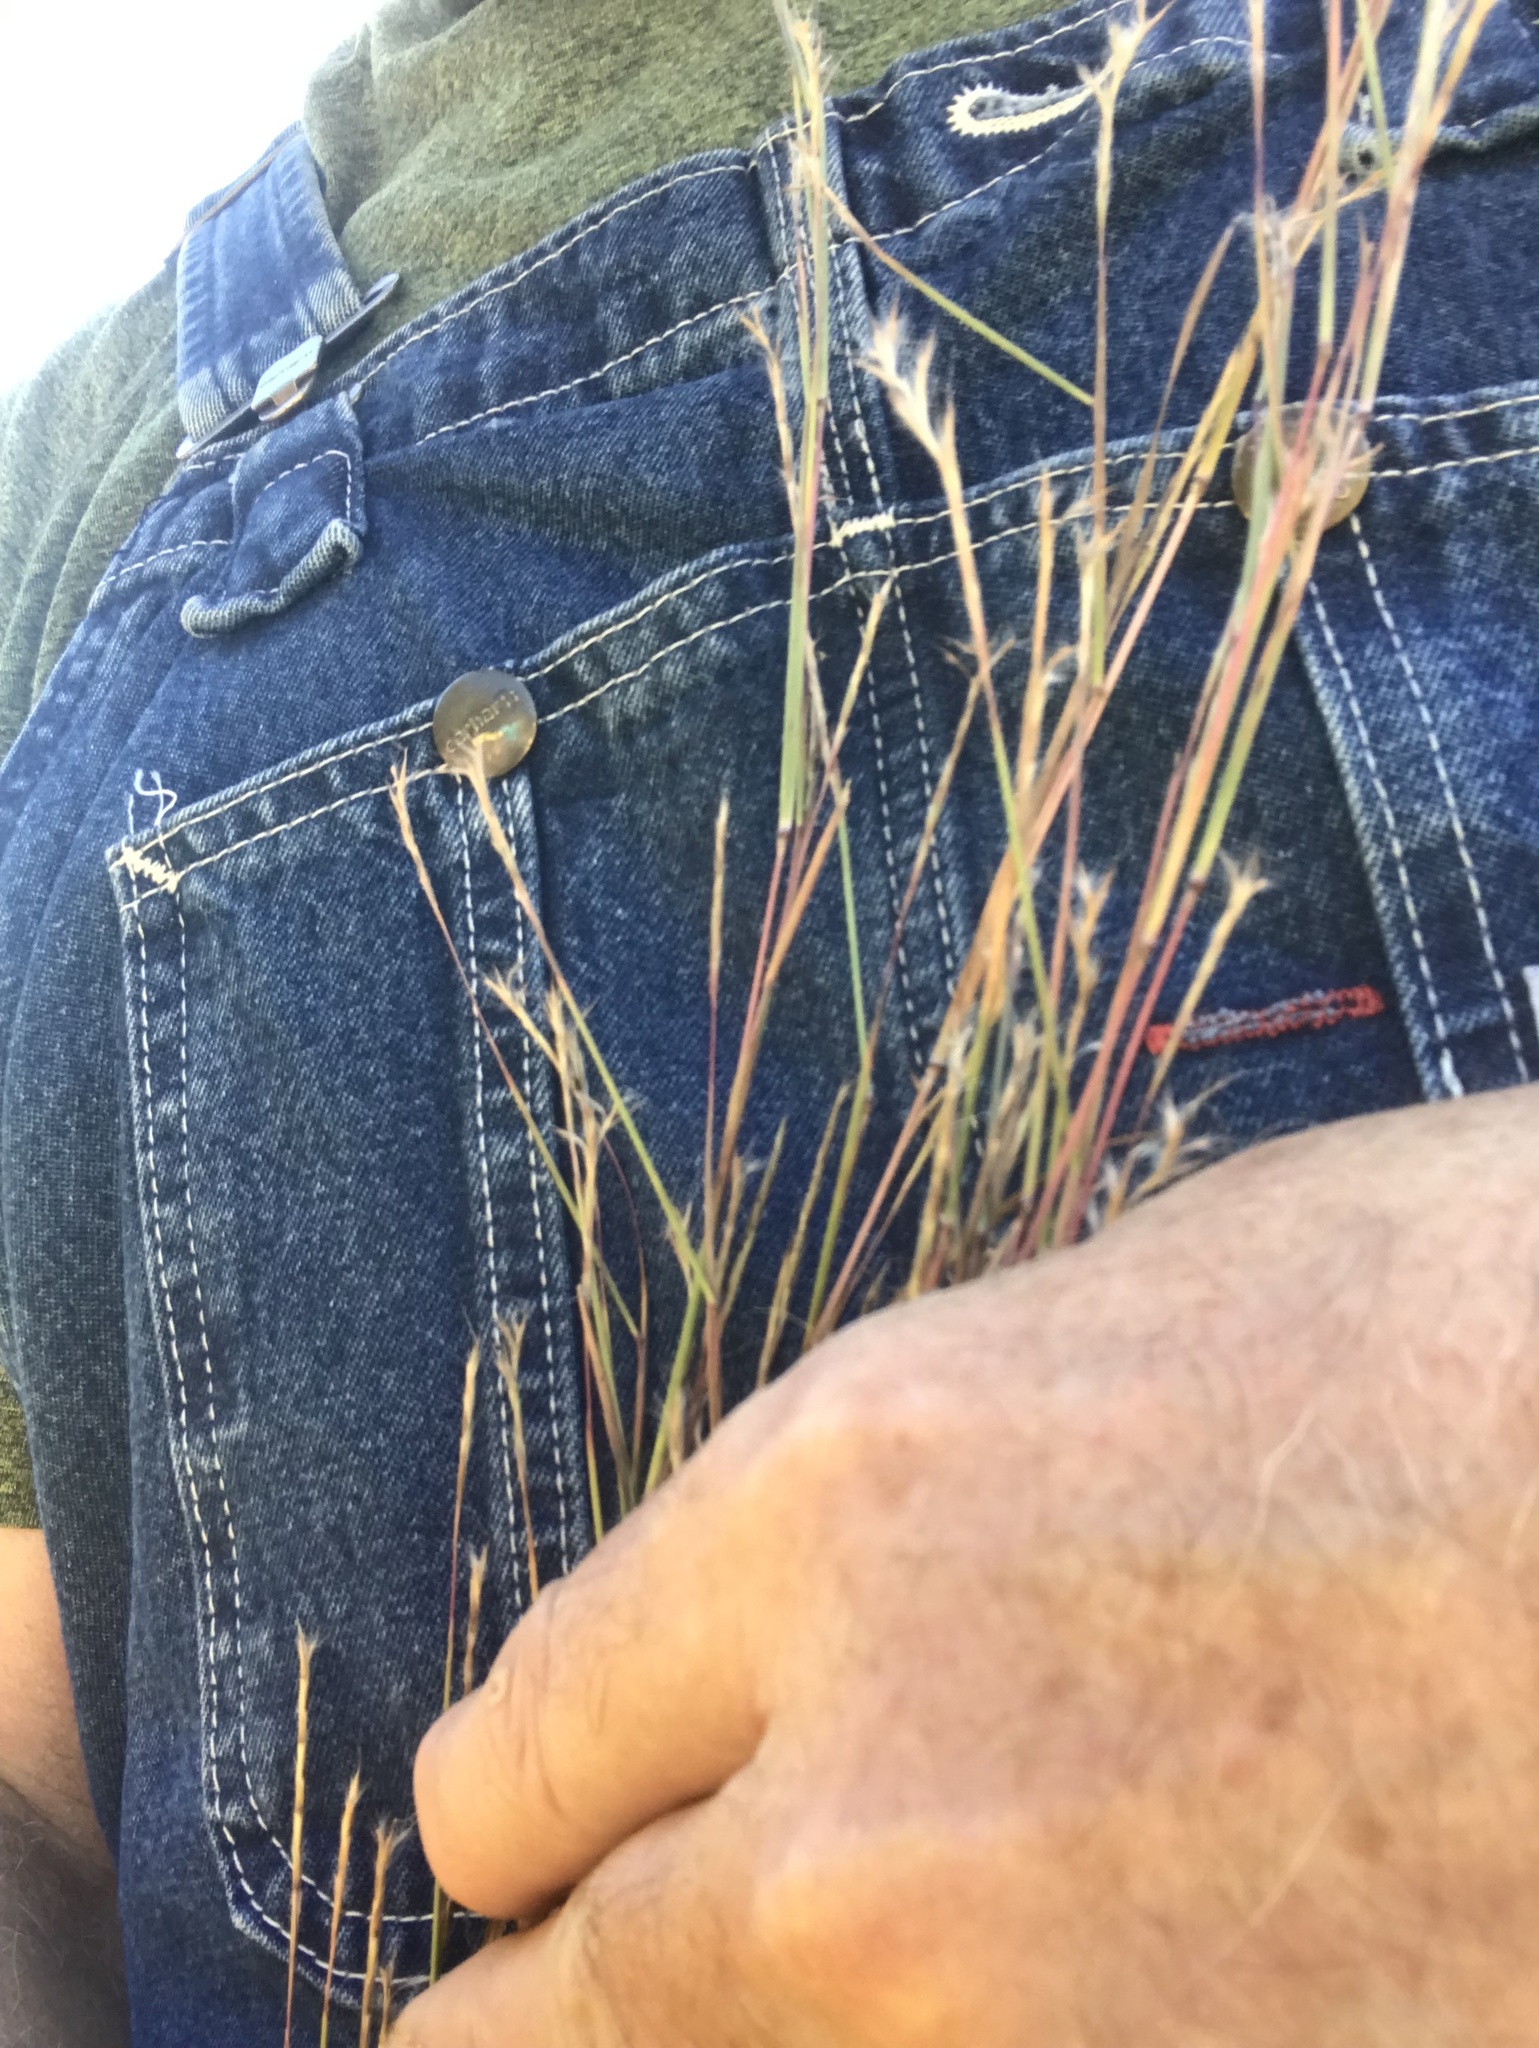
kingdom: Plantae
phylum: Tracheophyta
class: Liliopsida
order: Poales
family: Poaceae
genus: Schizachyrium
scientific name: Schizachyrium scoparium
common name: Little bluestem
